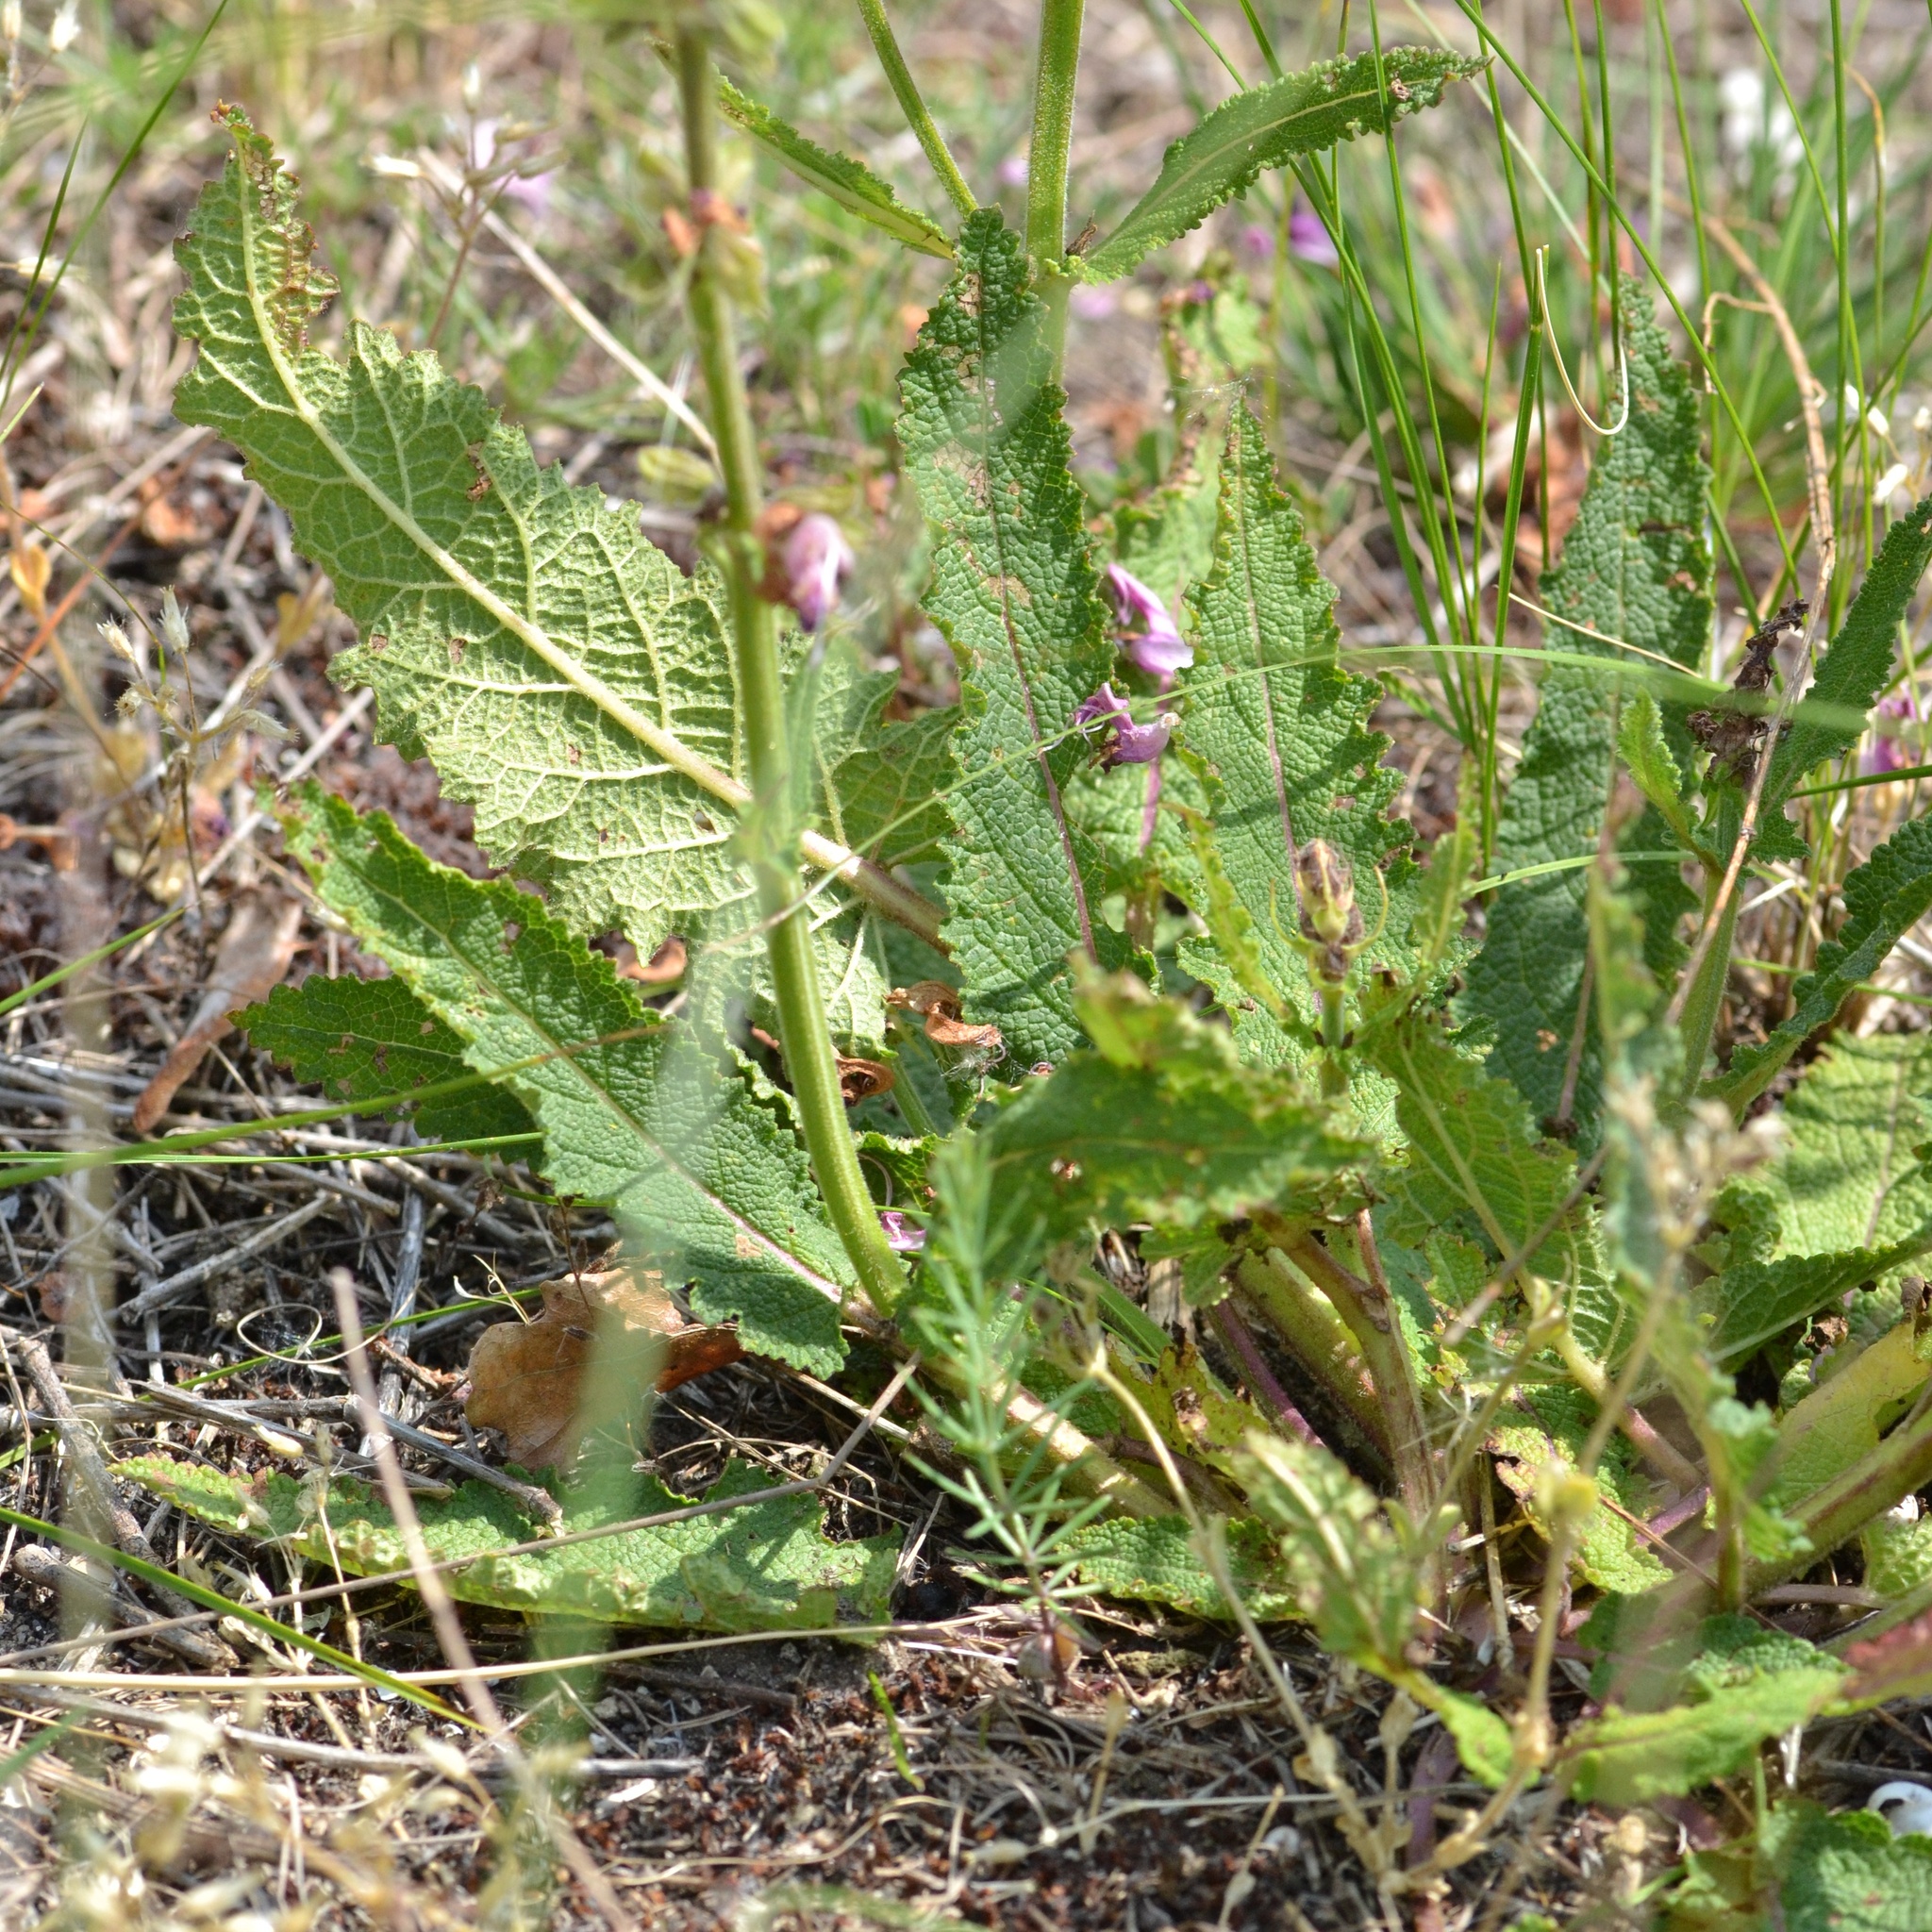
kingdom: Plantae
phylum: Tracheophyta
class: Magnoliopsida
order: Lamiales
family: Lamiaceae
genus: Salvia
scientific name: Salvia pratensis
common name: Meadow sage
